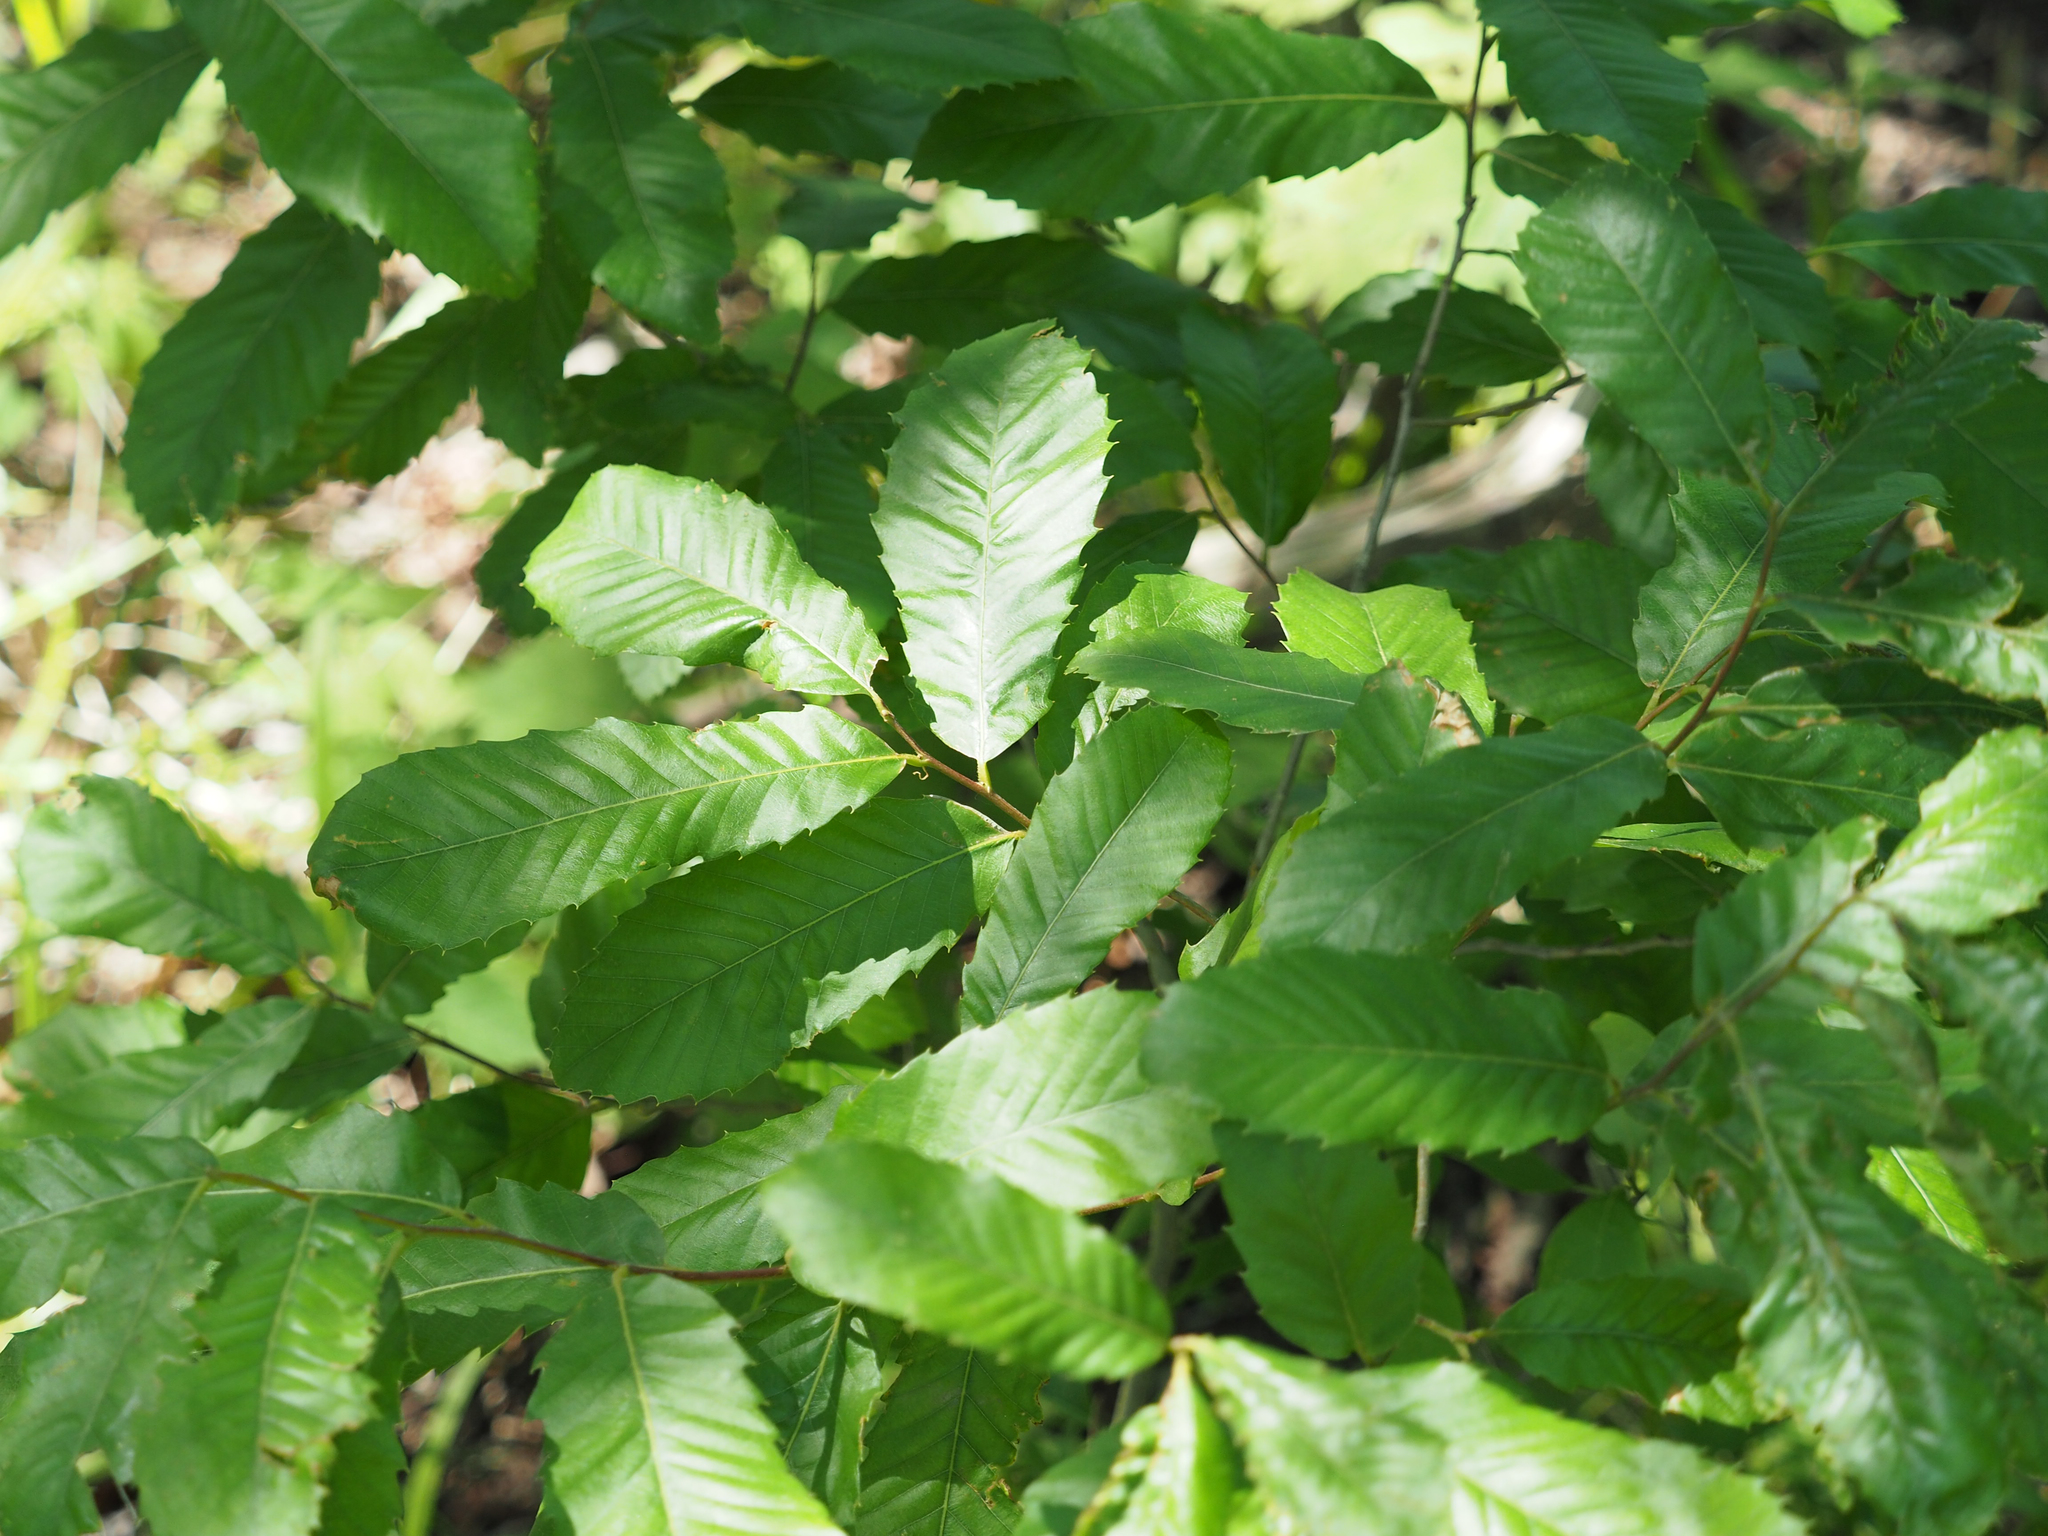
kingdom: Plantae
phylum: Tracheophyta
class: Magnoliopsida
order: Fagales
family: Fagaceae
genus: Castanea
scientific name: Castanea pumila
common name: Chinkapin
